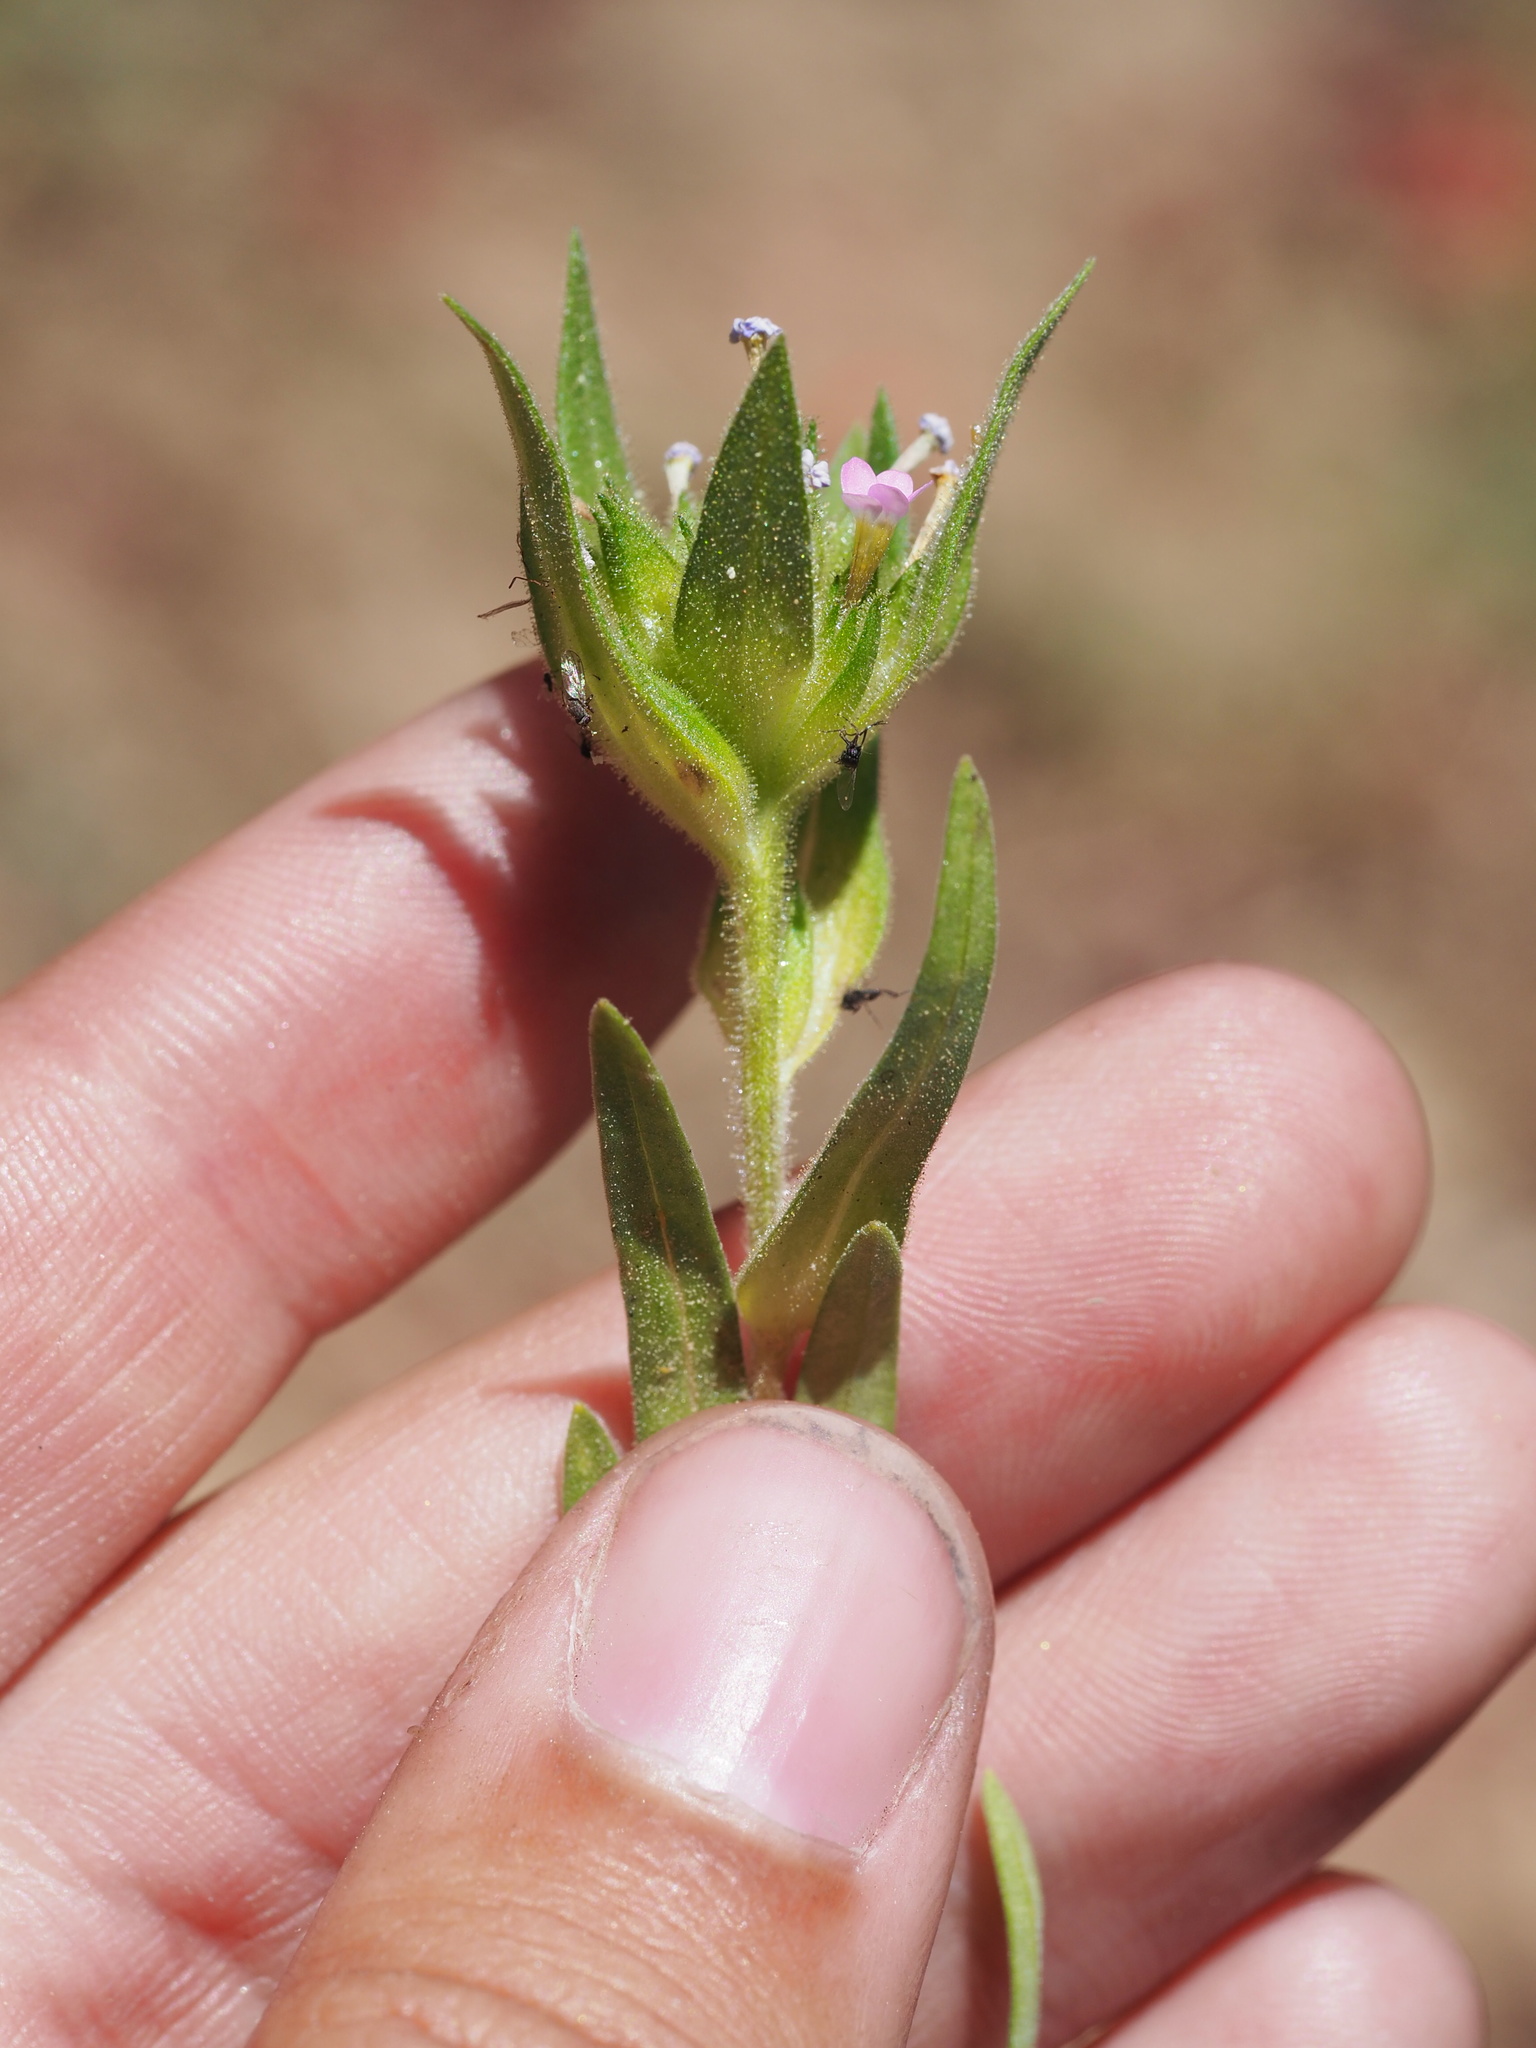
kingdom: Plantae
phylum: Tracheophyta
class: Magnoliopsida
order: Ericales
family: Polemoniaceae
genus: Collomia
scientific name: Collomia linearis
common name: Tiny trumpet
